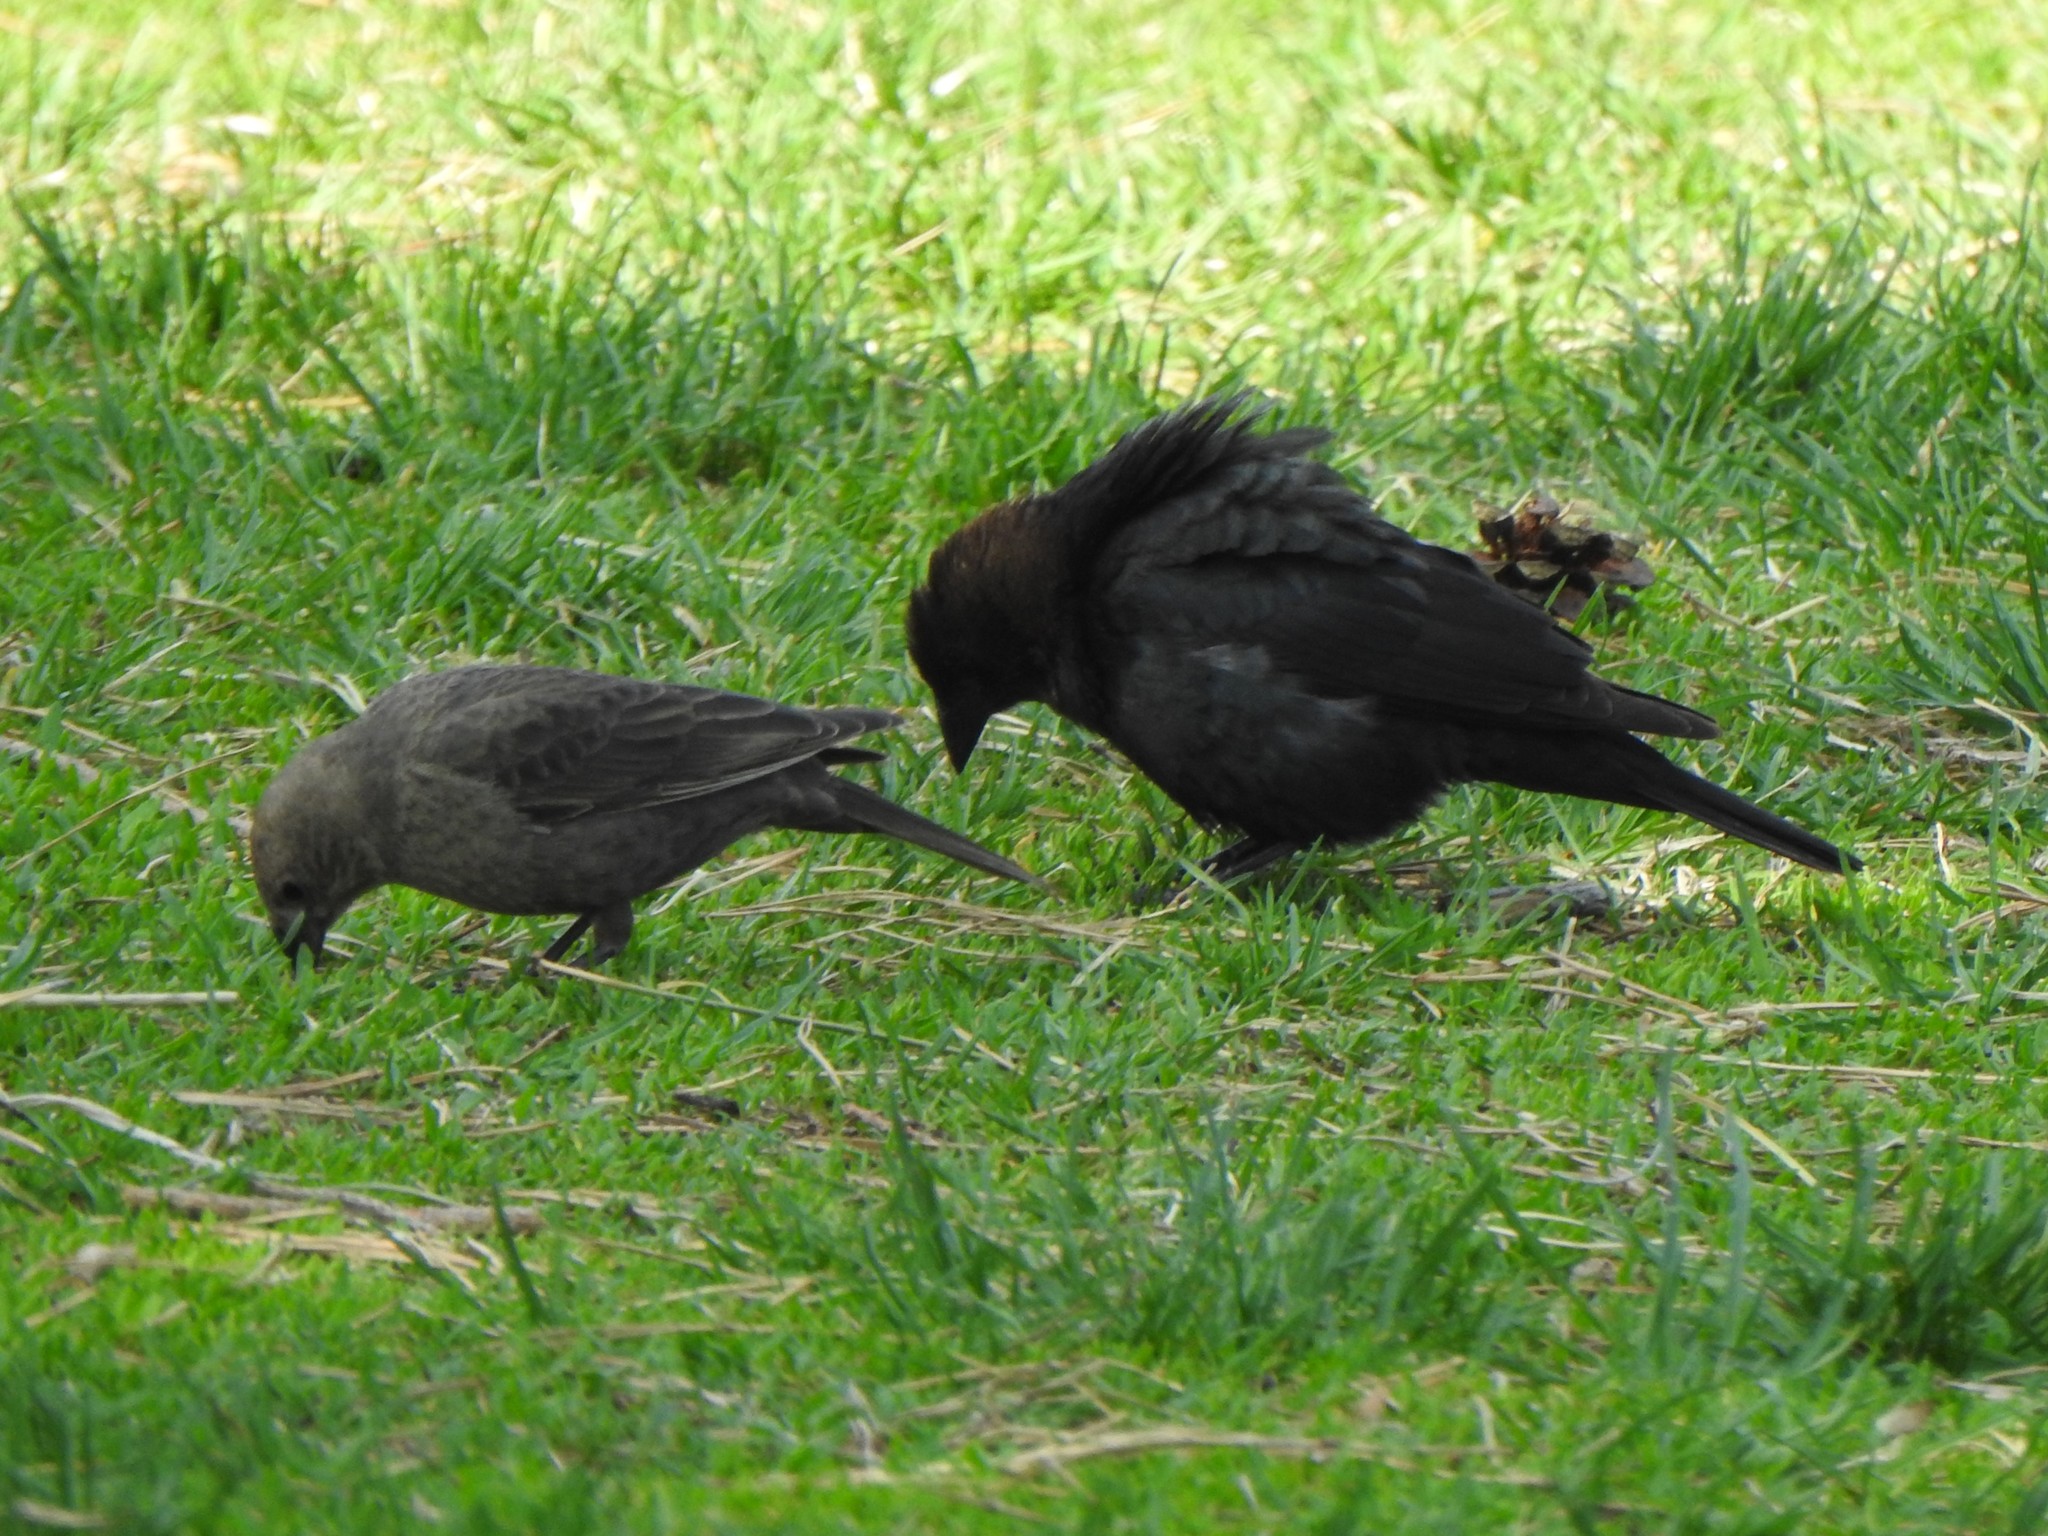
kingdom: Animalia
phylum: Chordata
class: Aves
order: Passeriformes
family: Icteridae
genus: Molothrus
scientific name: Molothrus ater
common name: Brown-headed cowbird
